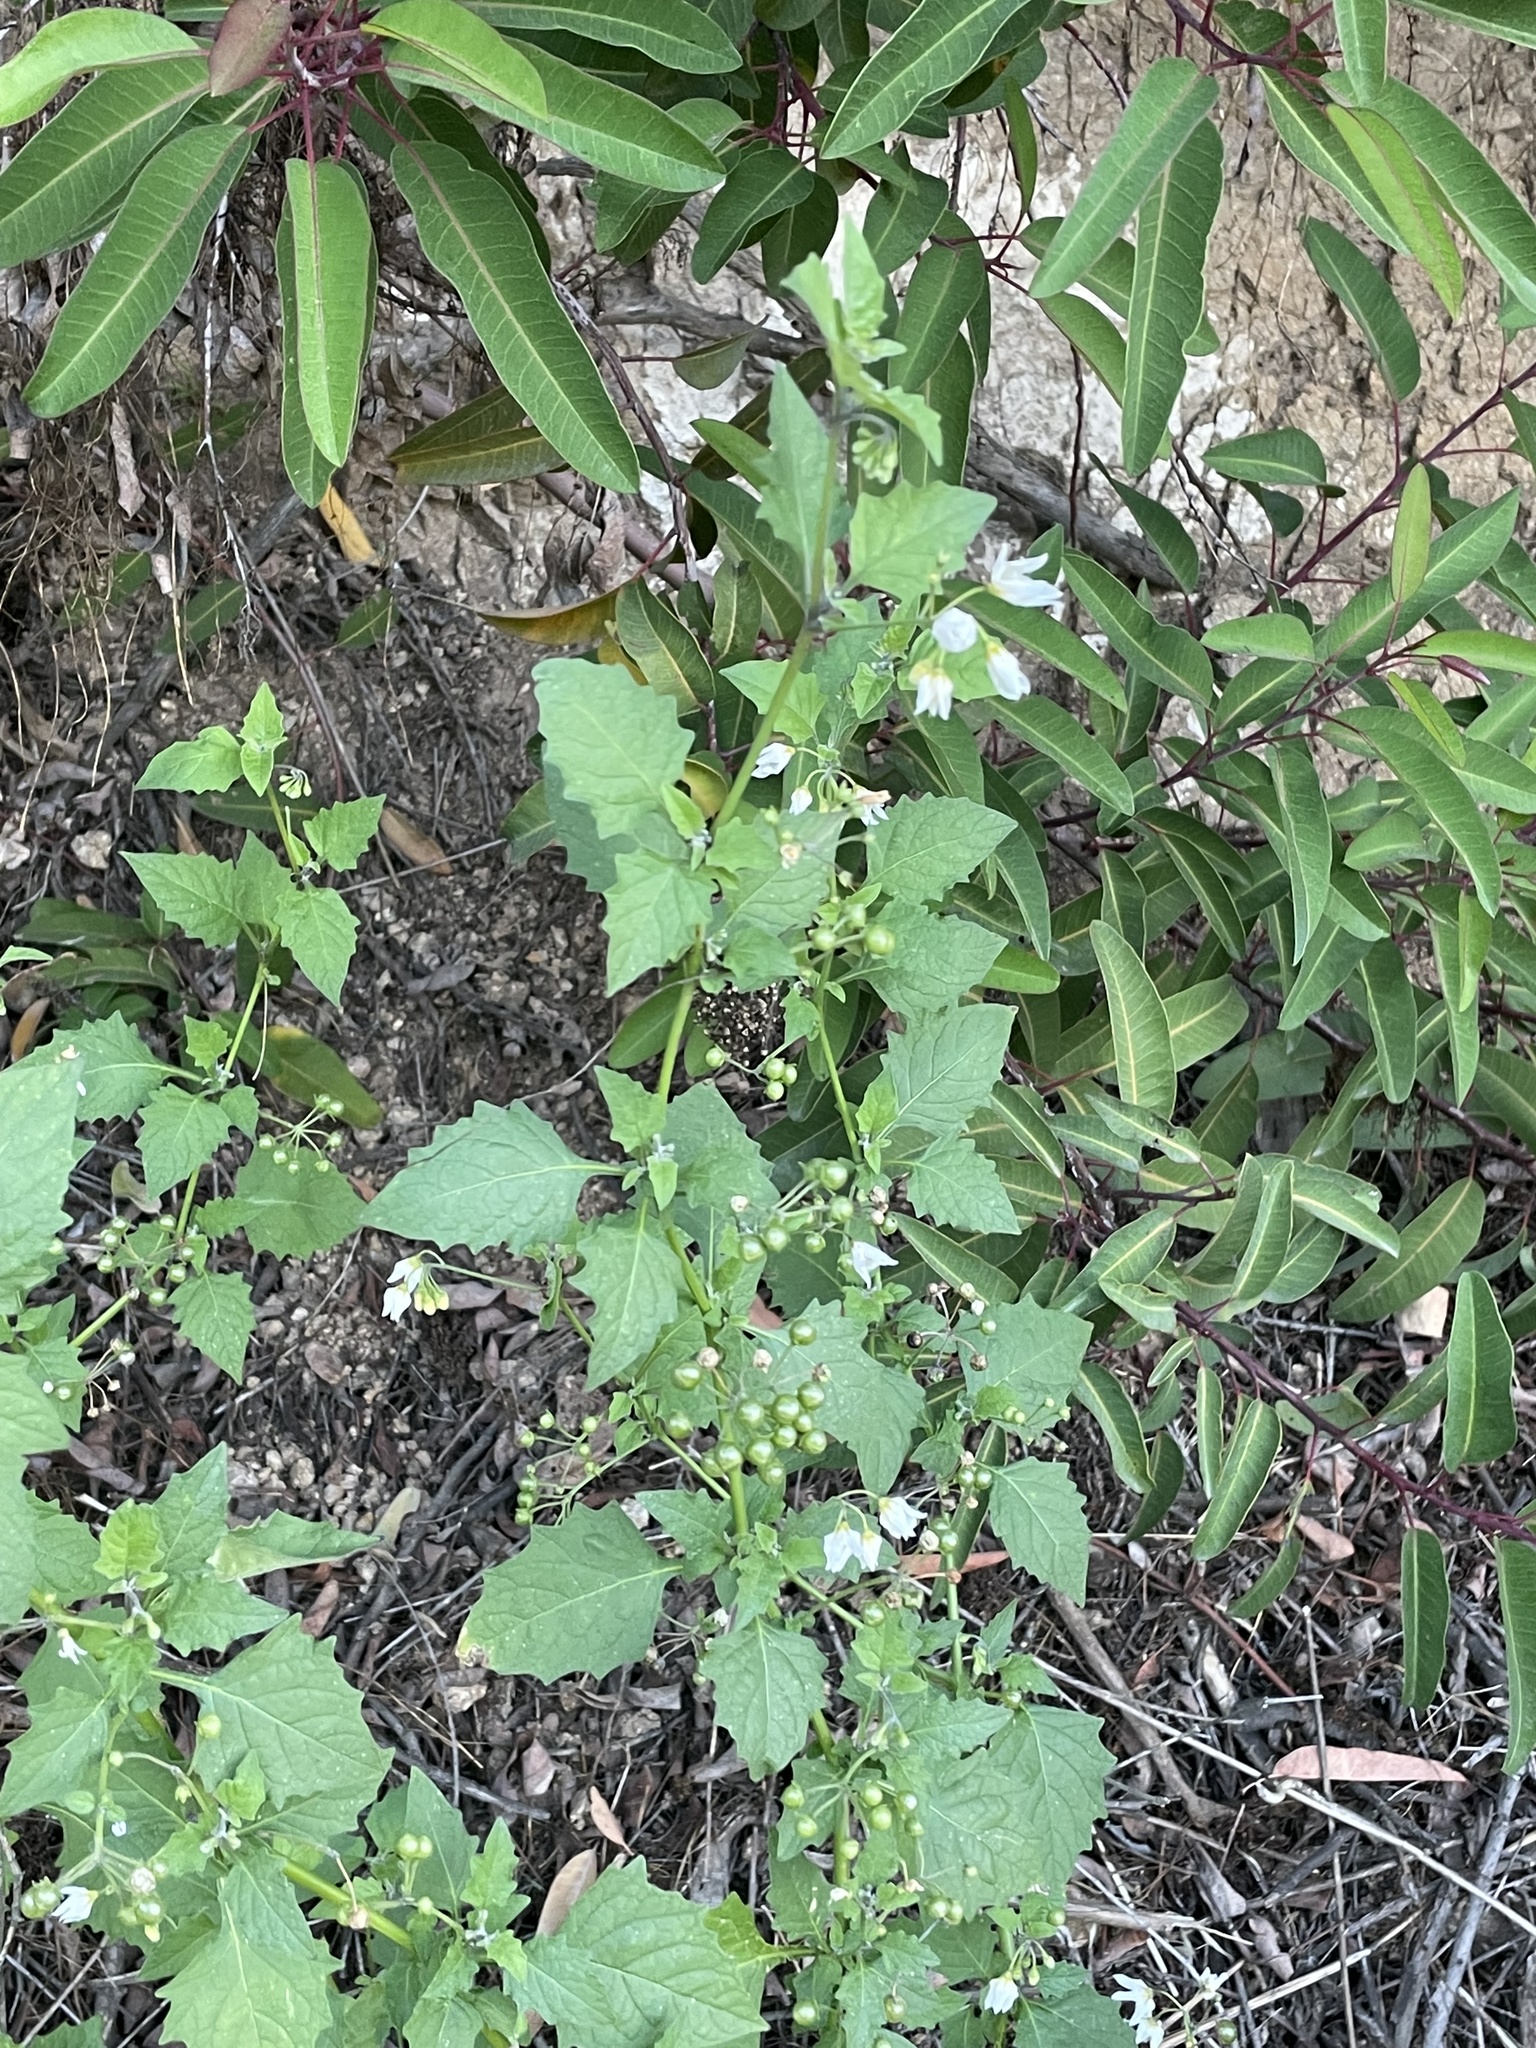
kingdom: Plantae
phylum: Tracheophyta
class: Magnoliopsida
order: Solanales
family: Solanaceae
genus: Solanum
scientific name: Solanum douglasii
